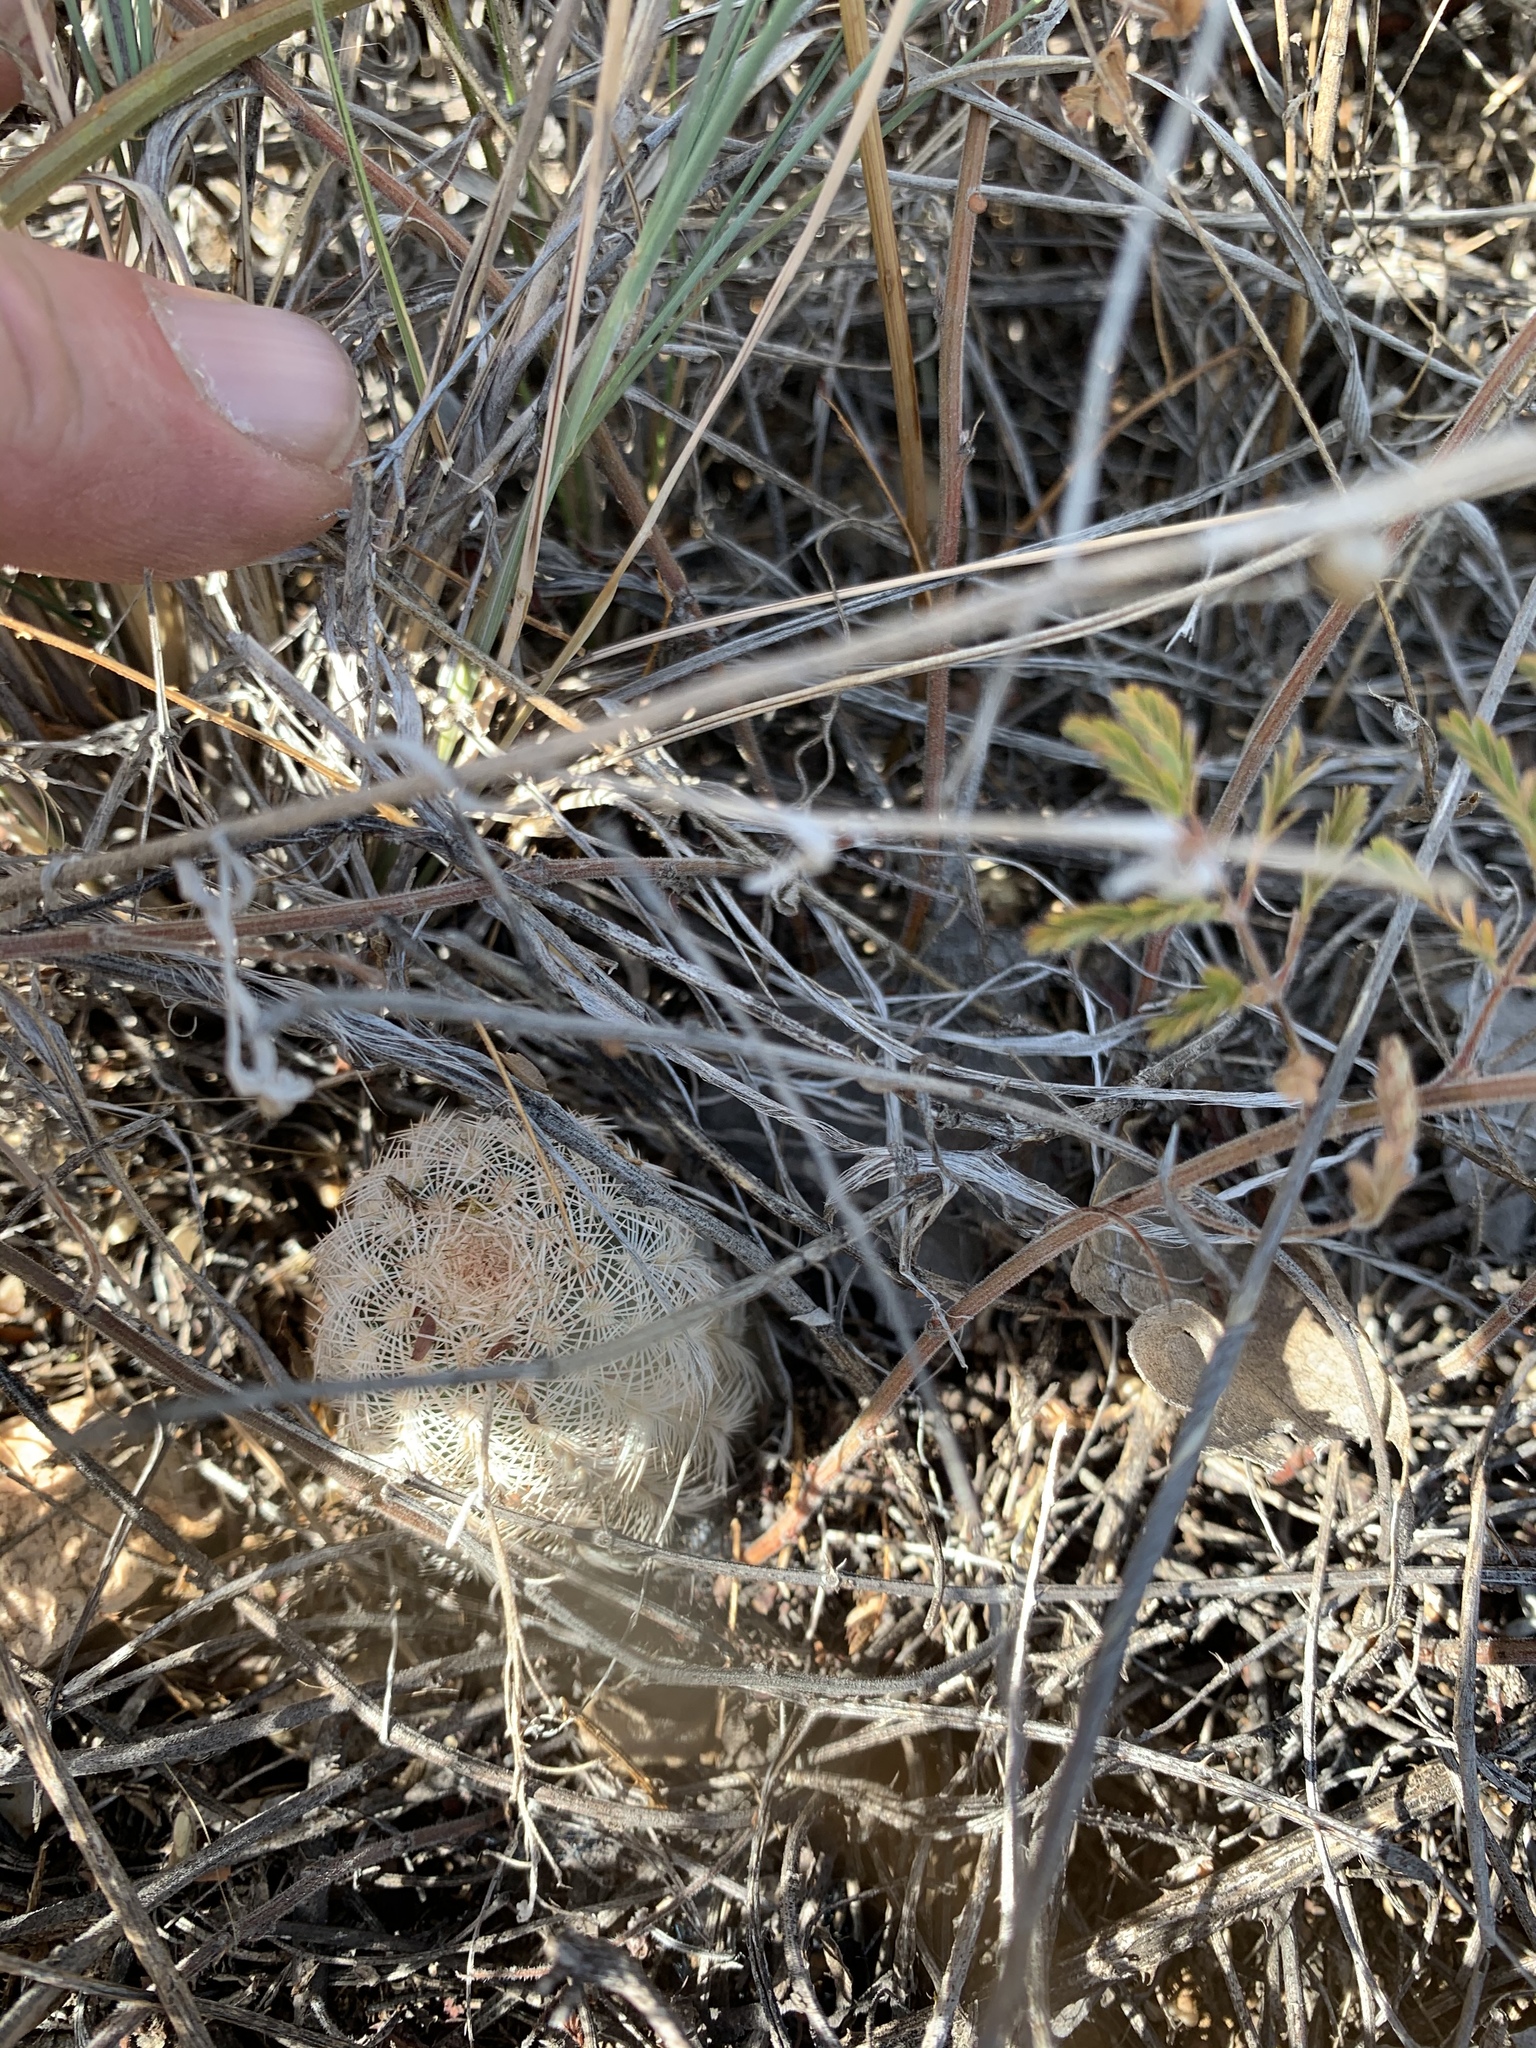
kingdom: Plantae
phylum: Tracheophyta
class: Magnoliopsida
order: Caryophyllales
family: Cactaceae
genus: Echinocereus
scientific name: Echinocereus reichenbachii
